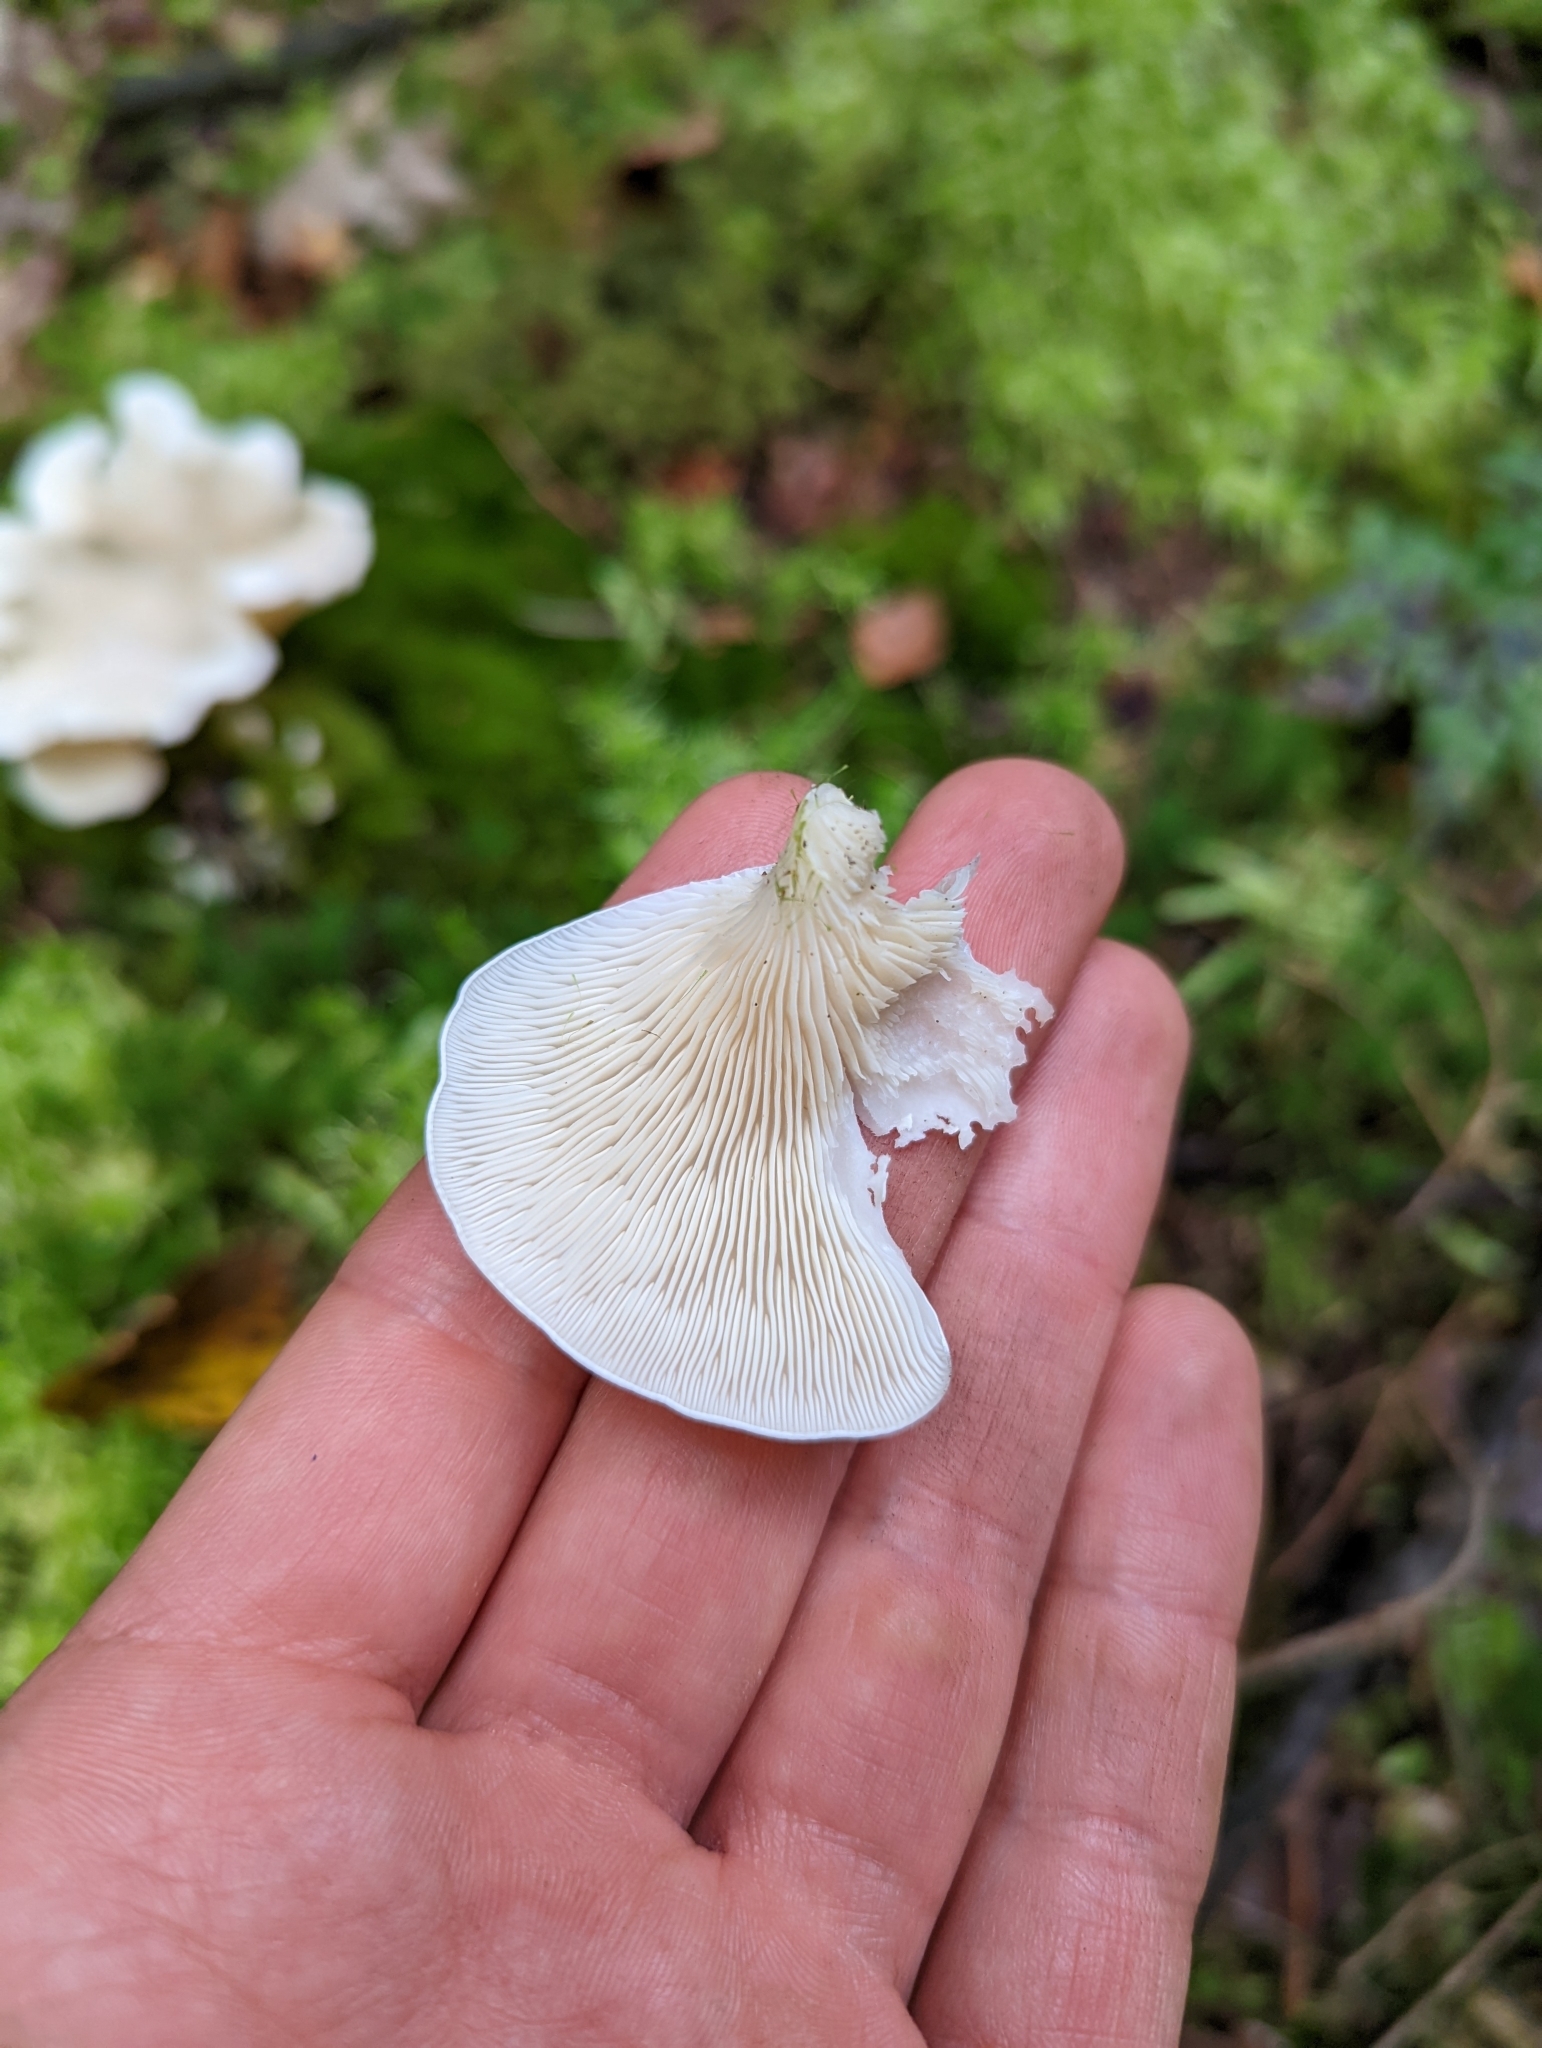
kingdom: Fungi
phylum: Basidiomycota
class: Agaricomycetes
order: Agaricales
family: Marasmiaceae
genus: Pleurocybella
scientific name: Pleurocybella porrigens
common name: Angel's wings
